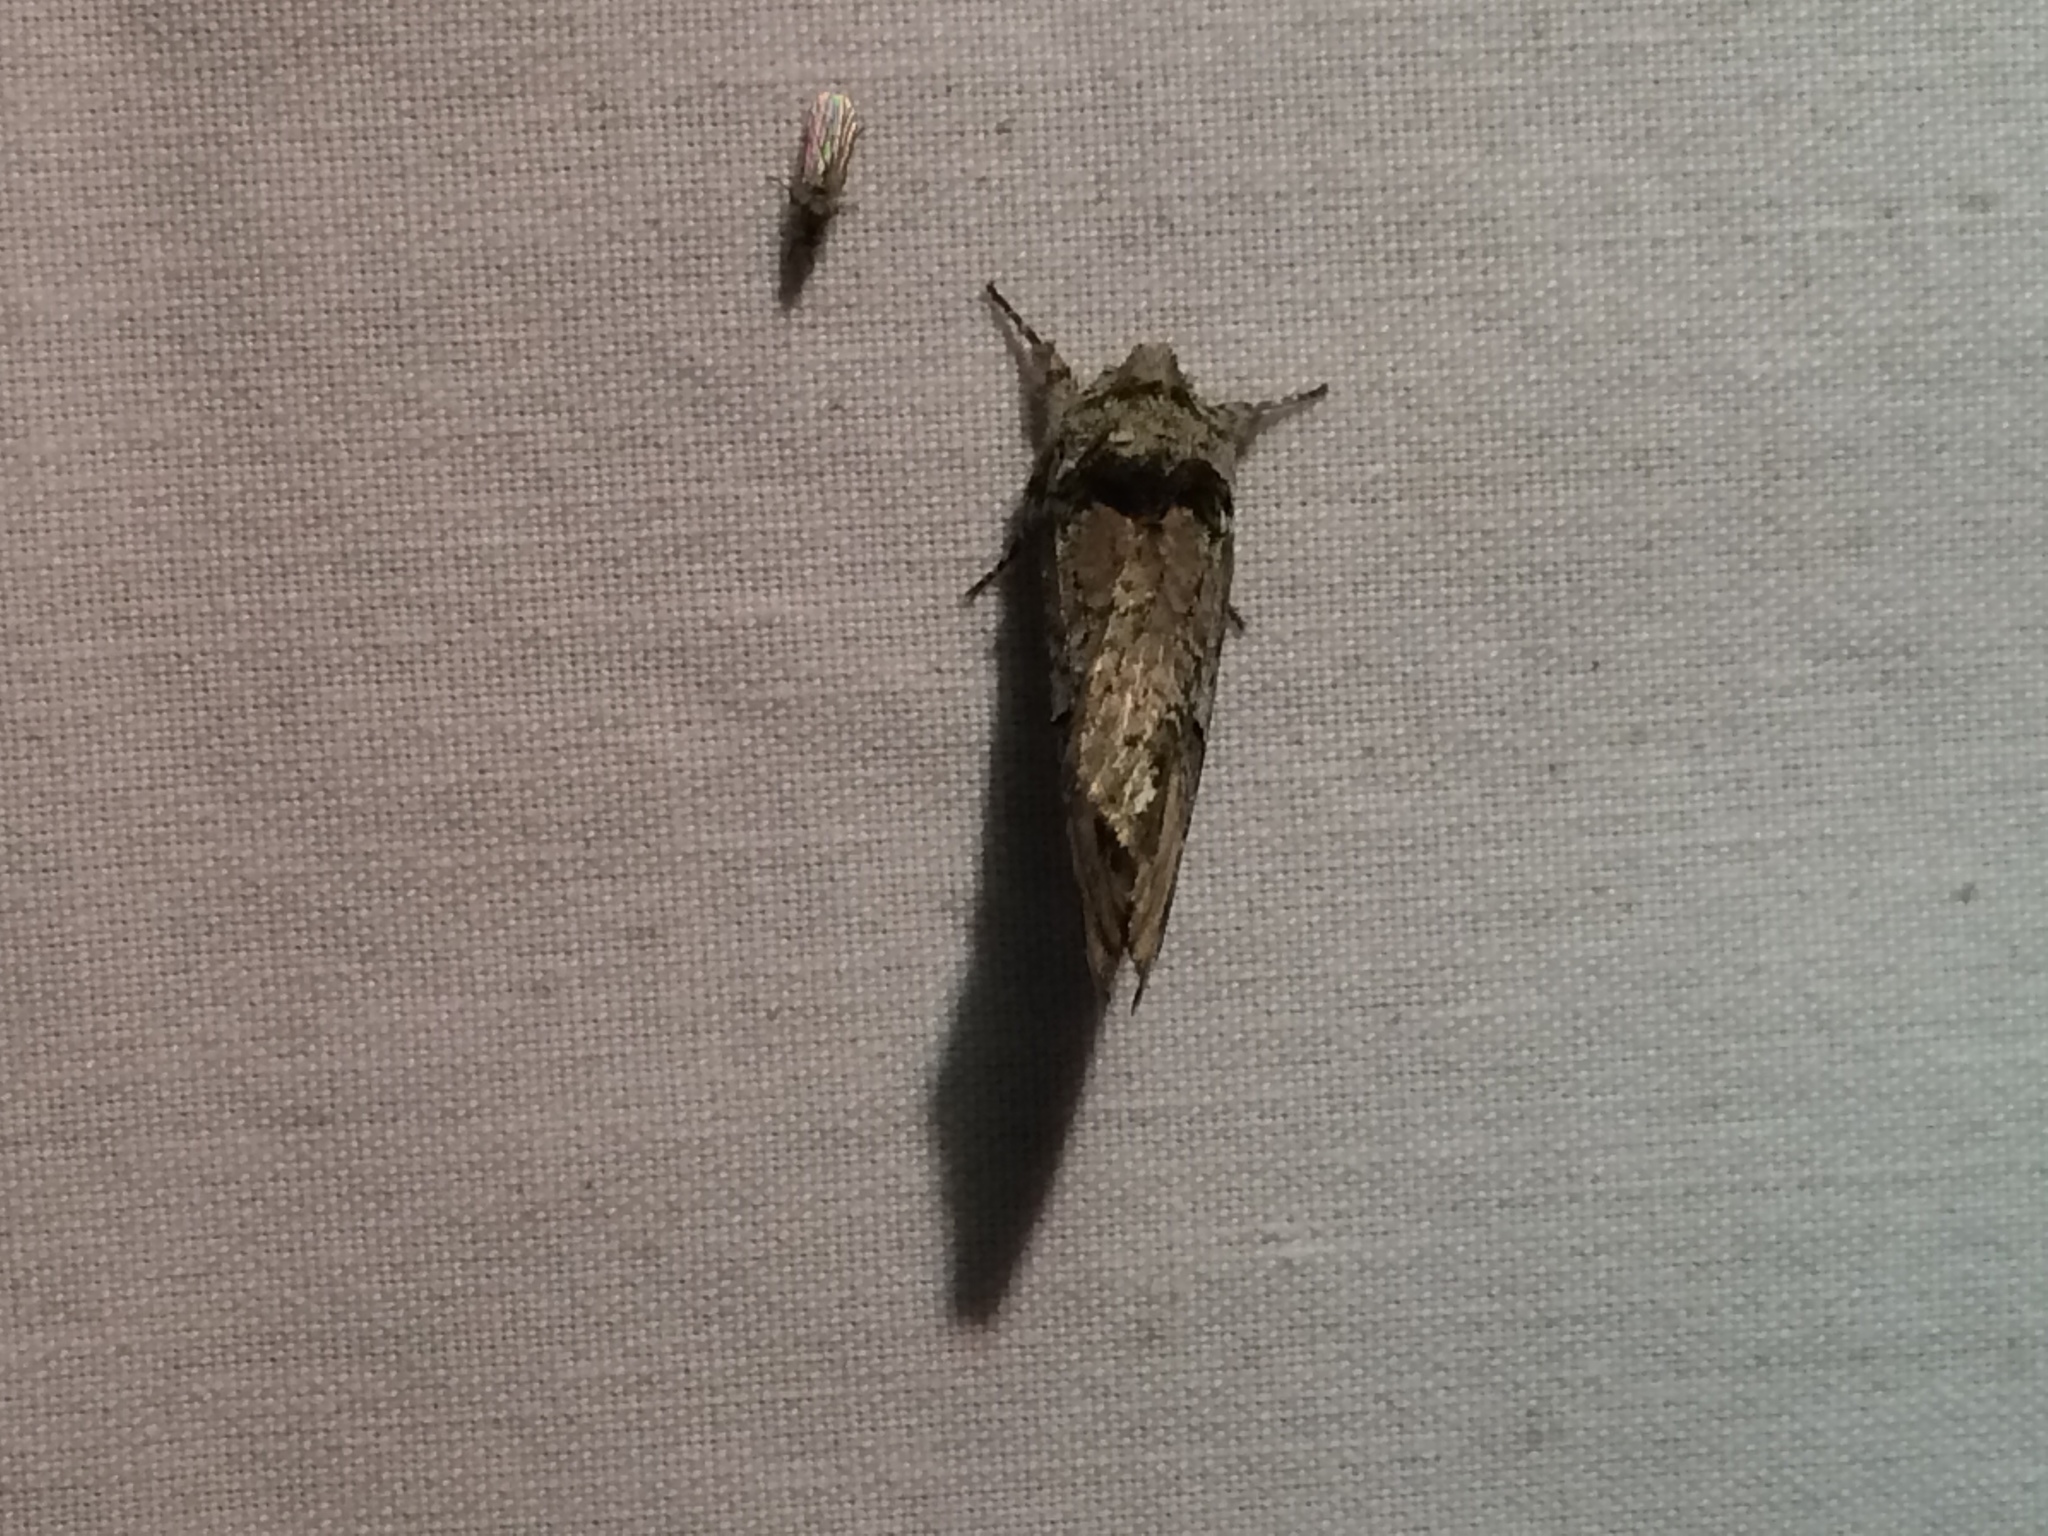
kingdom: Animalia
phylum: Arthropoda
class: Insecta
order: Lepidoptera
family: Notodontidae
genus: Schizura
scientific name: Schizura
